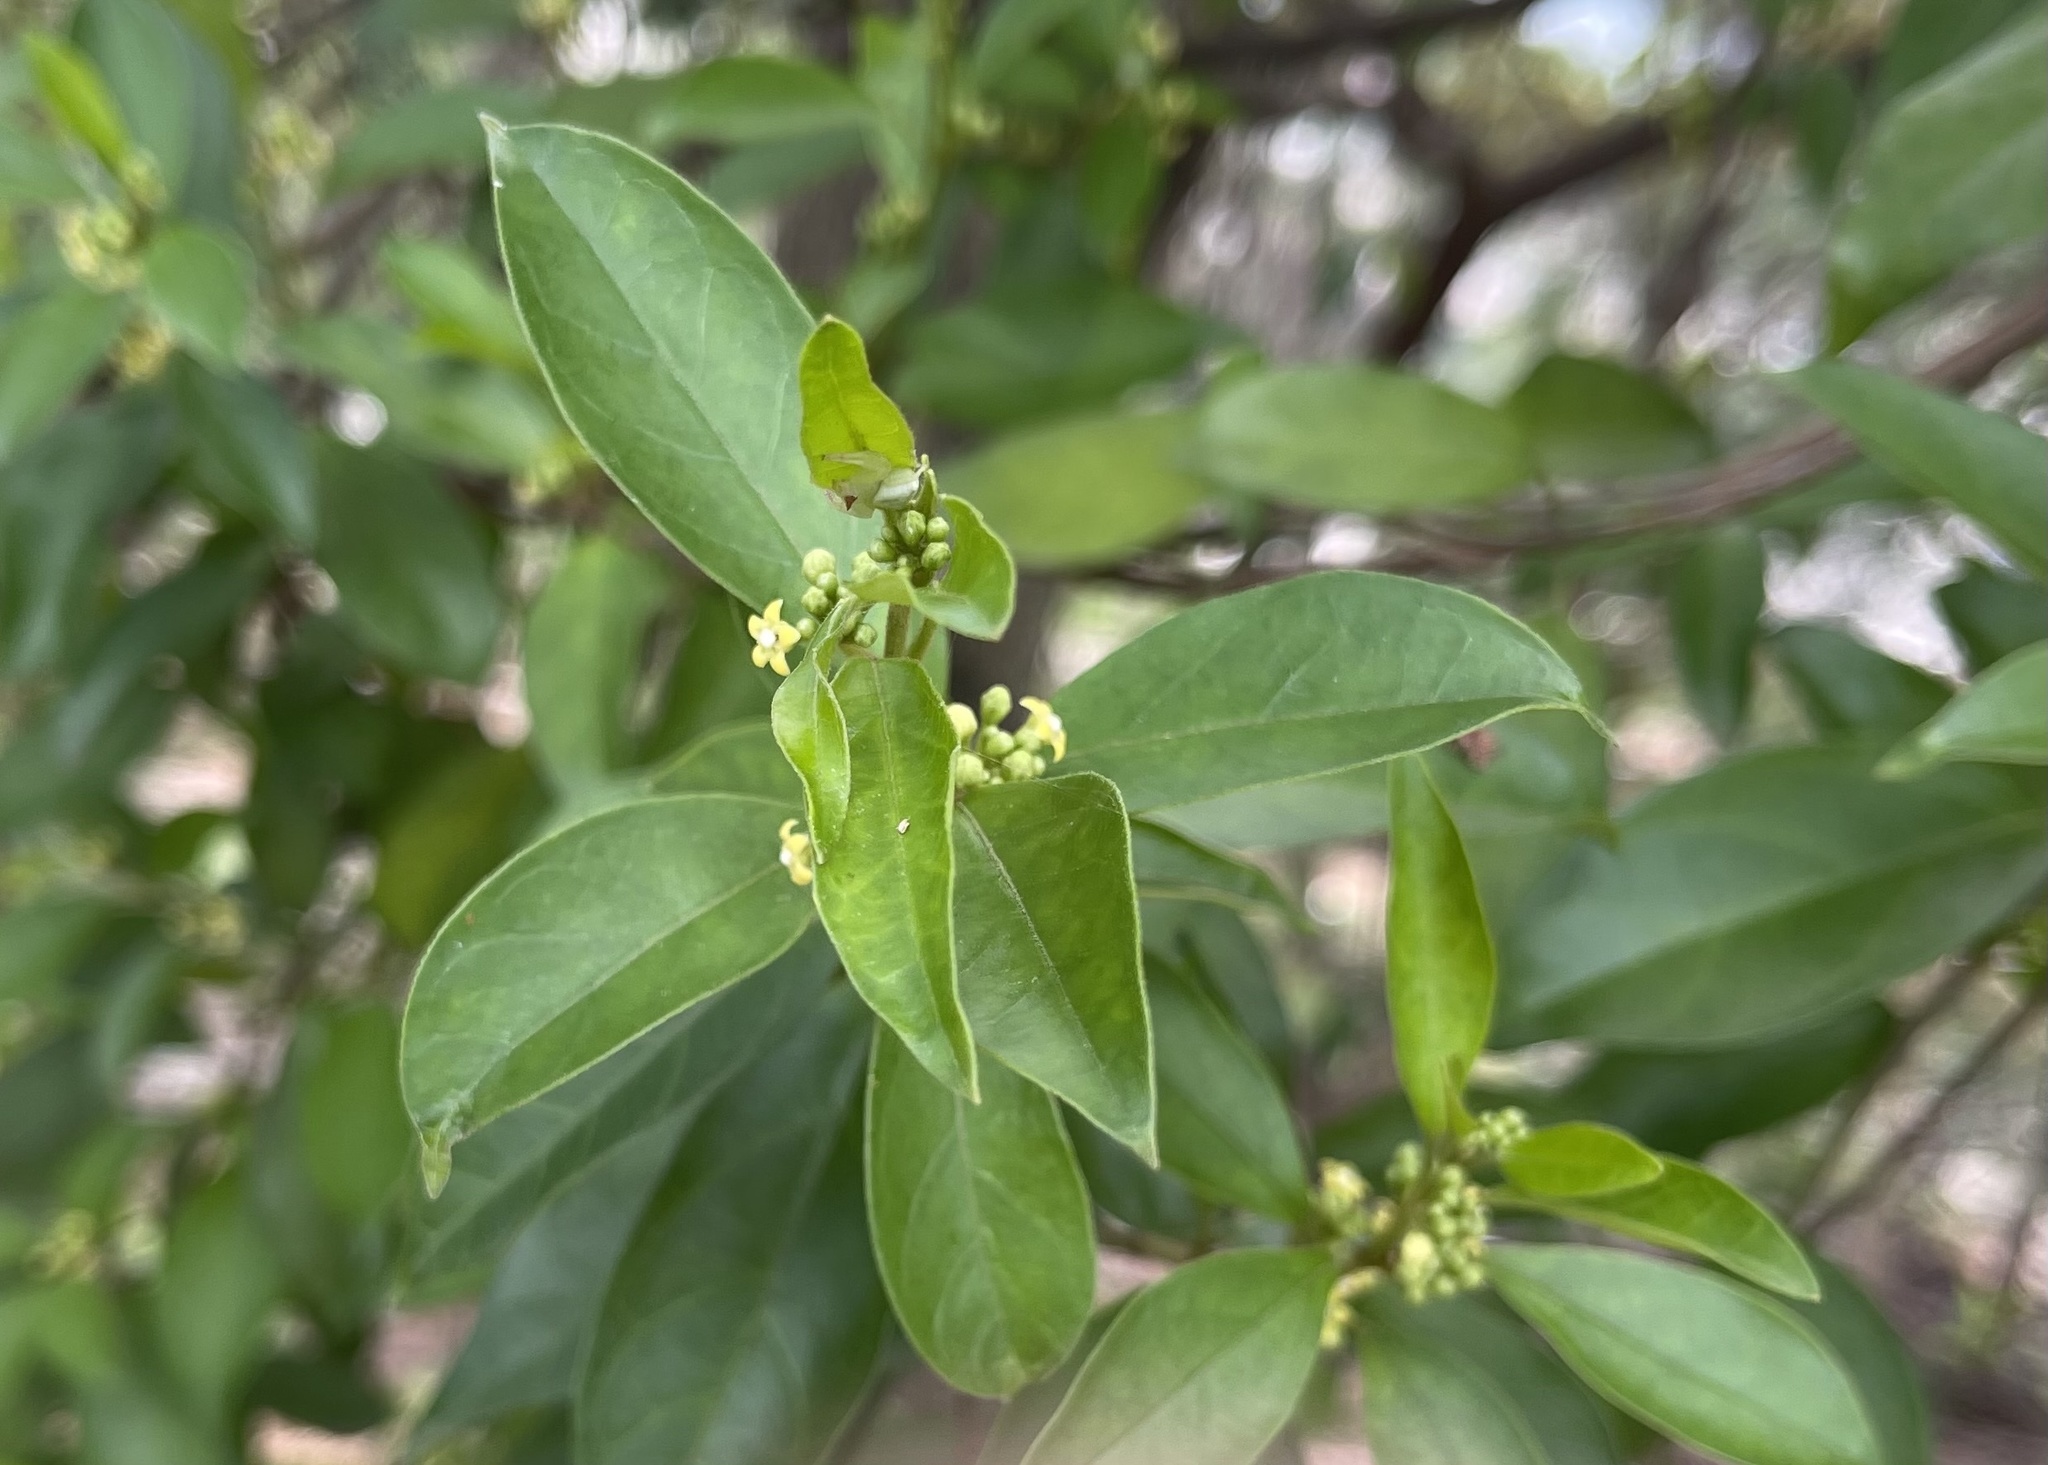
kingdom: Plantae
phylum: Tracheophyta
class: Magnoliopsida
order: Gentianales
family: Apocynaceae
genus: Gymnema
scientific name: Gymnema sylvestre
